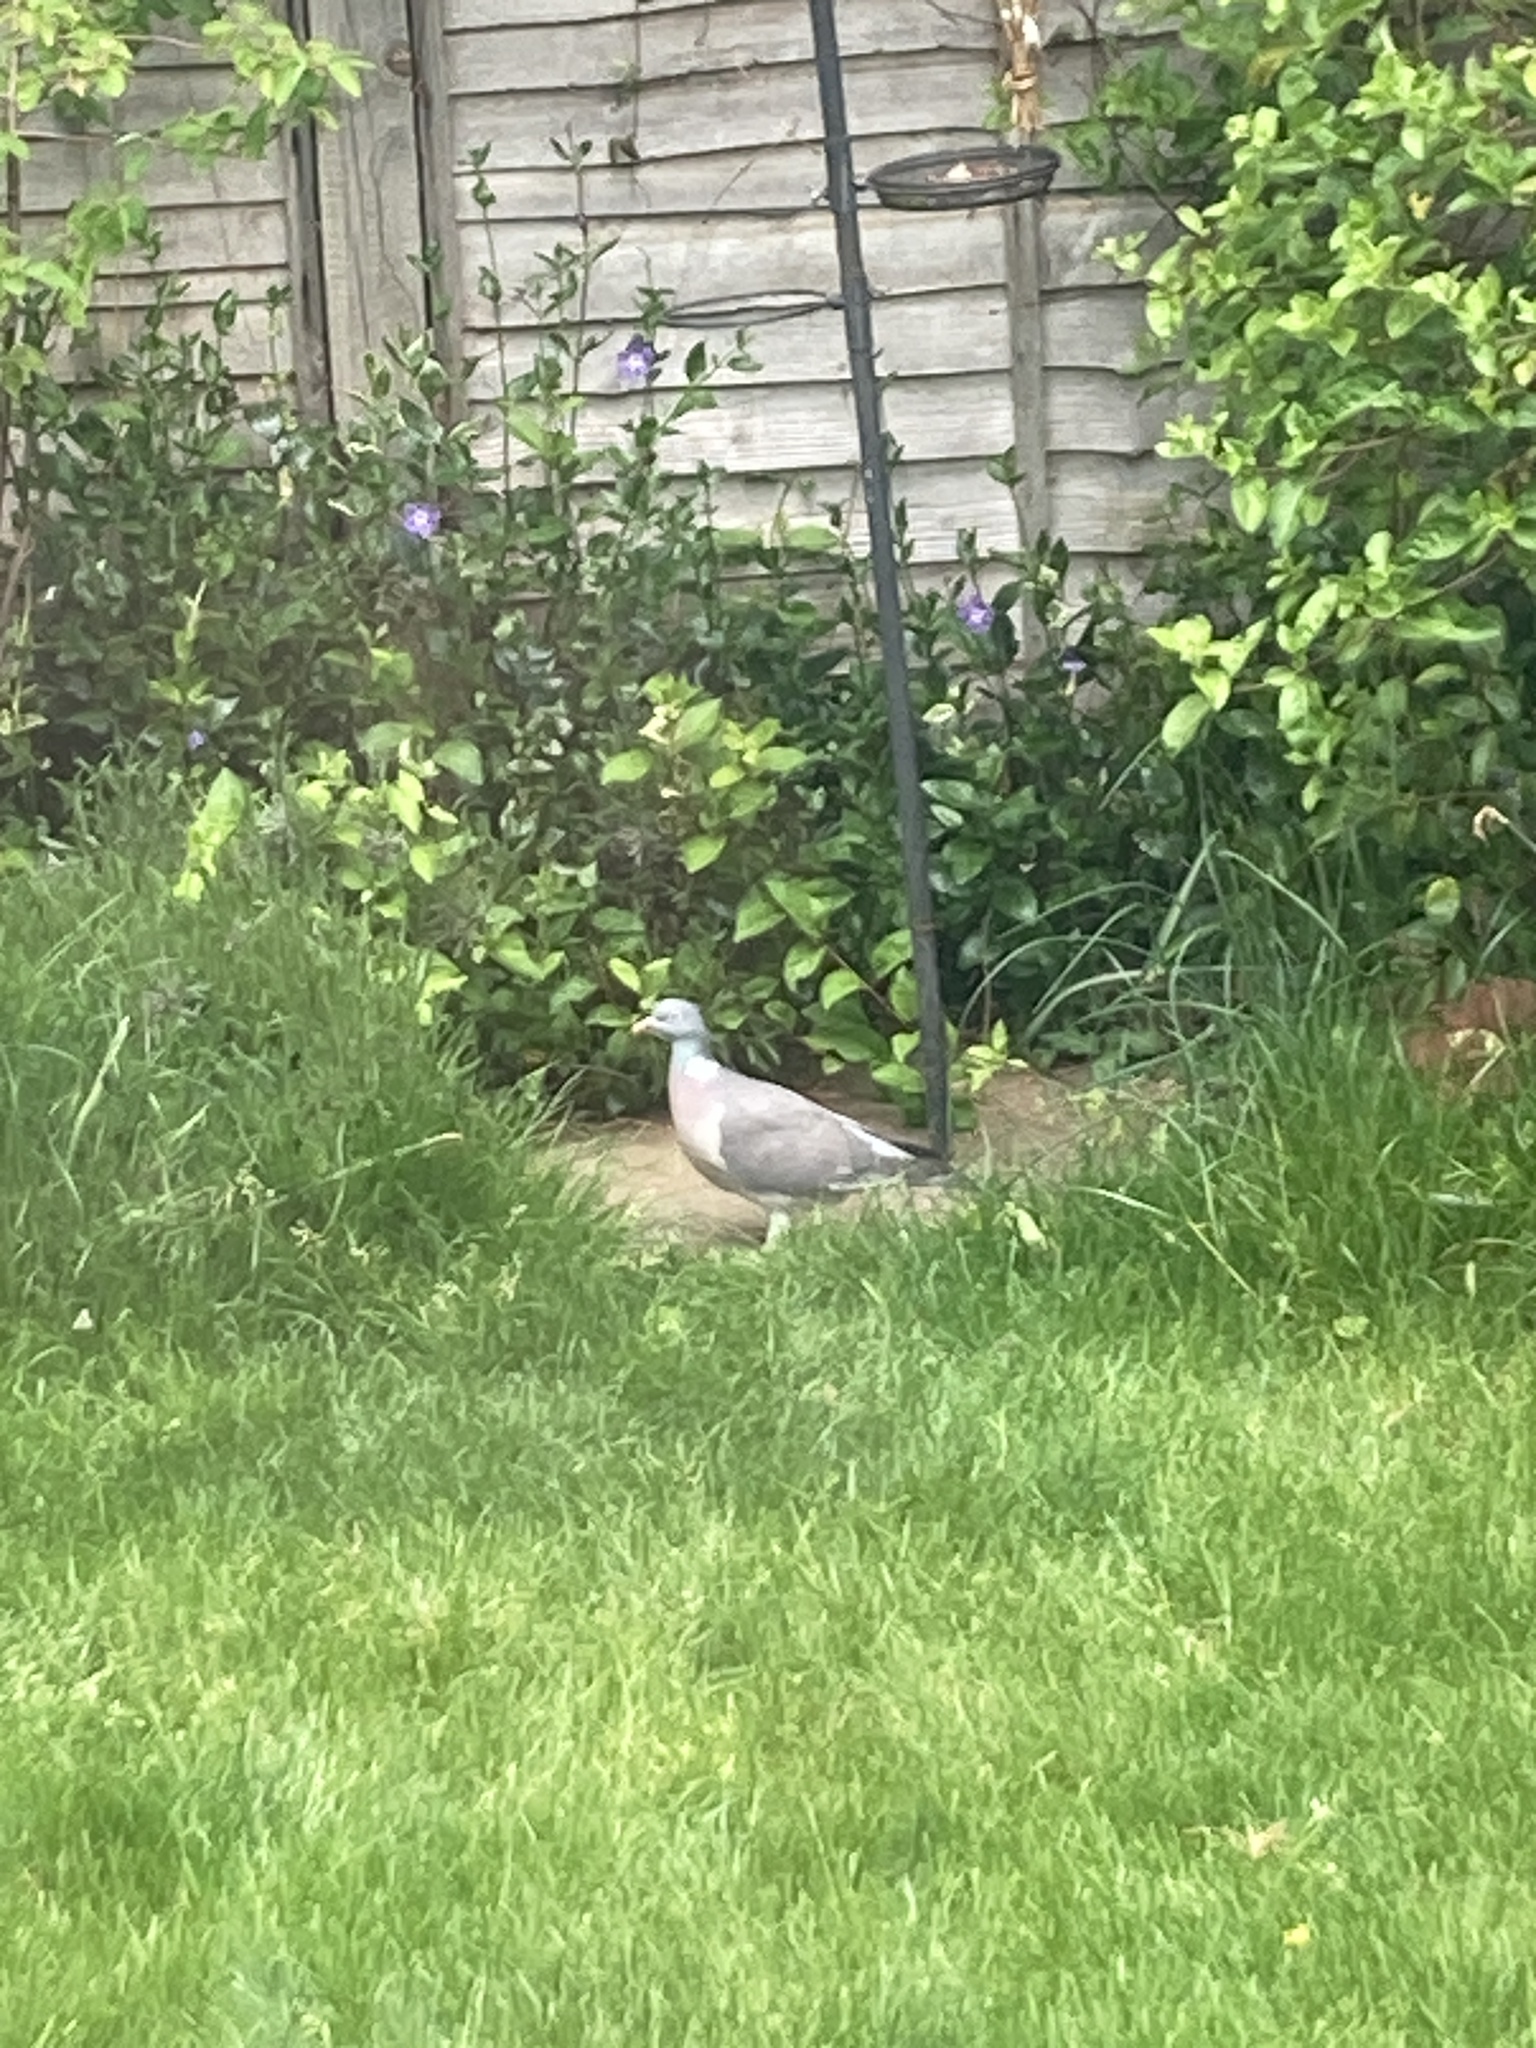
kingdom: Animalia
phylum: Chordata
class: Aves
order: Columbiformes
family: Columbidae
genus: Columba
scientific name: Columba palumbus
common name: Common wood pigeon
